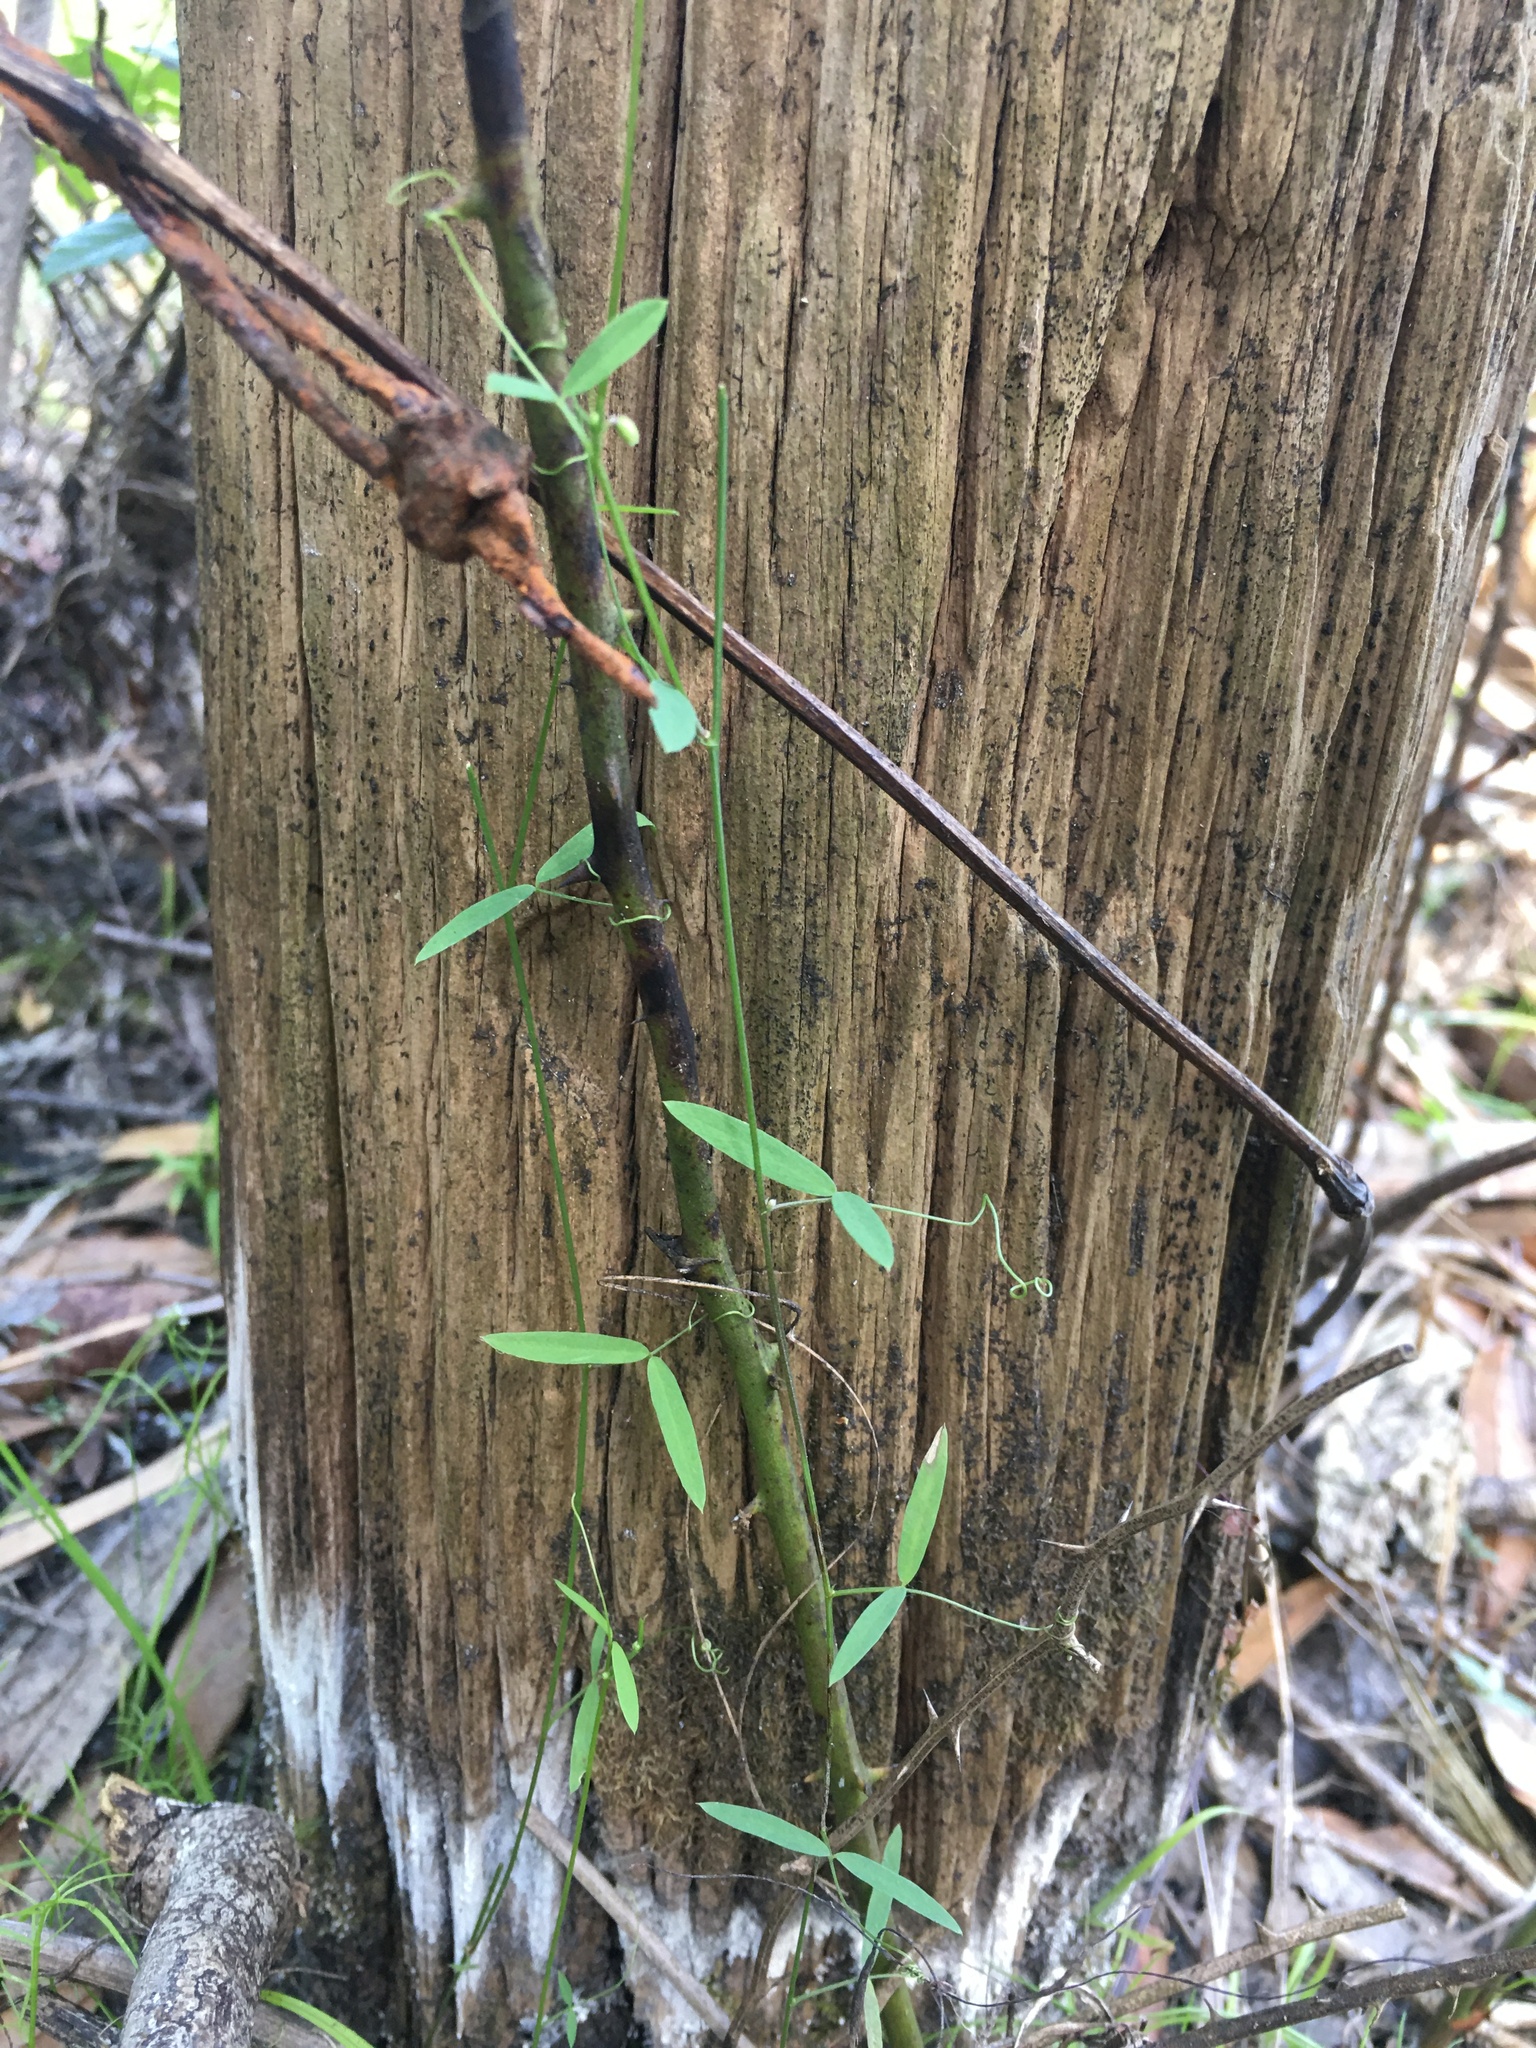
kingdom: Plantae
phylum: Tracheophyta
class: Magnoliopsida
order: Fabales
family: Fabaceae
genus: Vicia
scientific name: Vicia acutifolia
